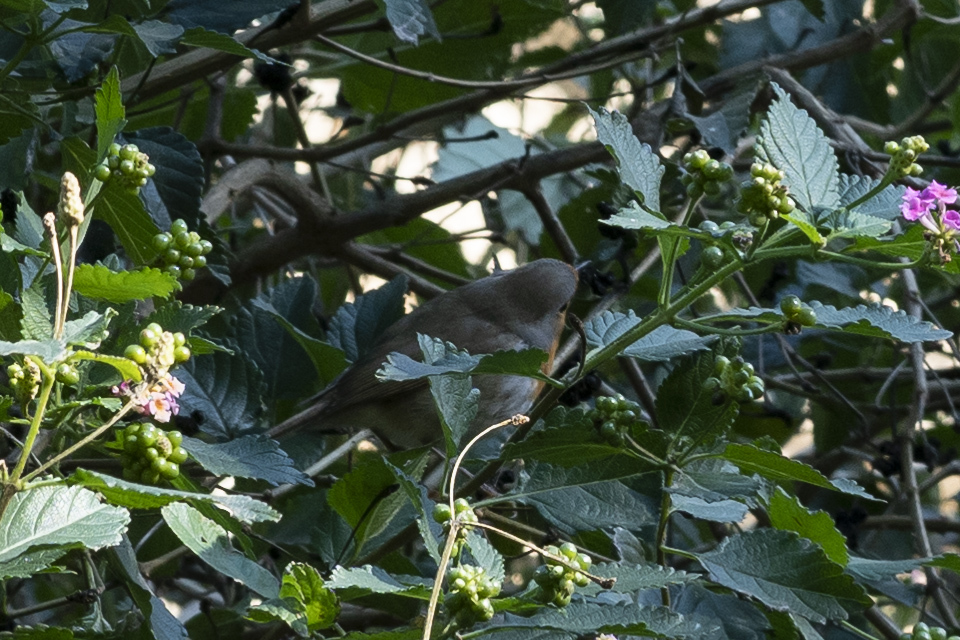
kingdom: Animalia
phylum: Chordata
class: Aves
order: Passeriformes
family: Muscicapidae
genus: Erithacus
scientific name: Erithacus rubecula
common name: European robin
